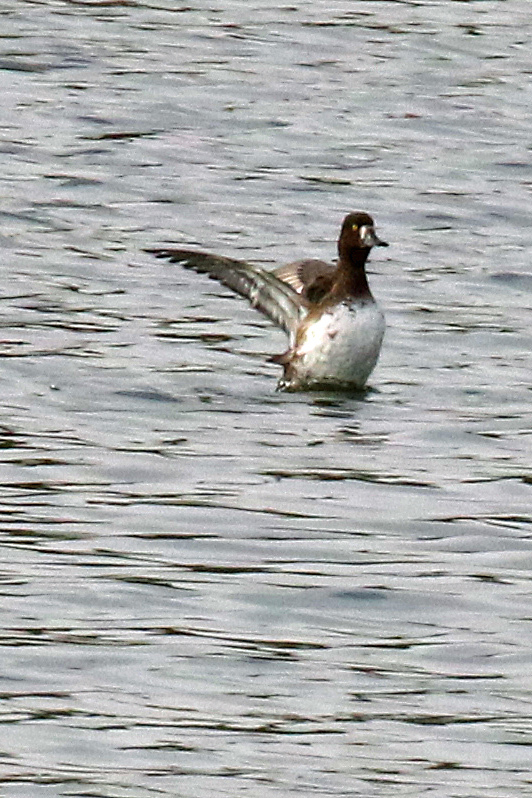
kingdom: Animalia
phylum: Chordata
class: Aves
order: Anseriformes
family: Anatidae
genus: Aythya
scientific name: Aythya fuligula
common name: Tufted duck
